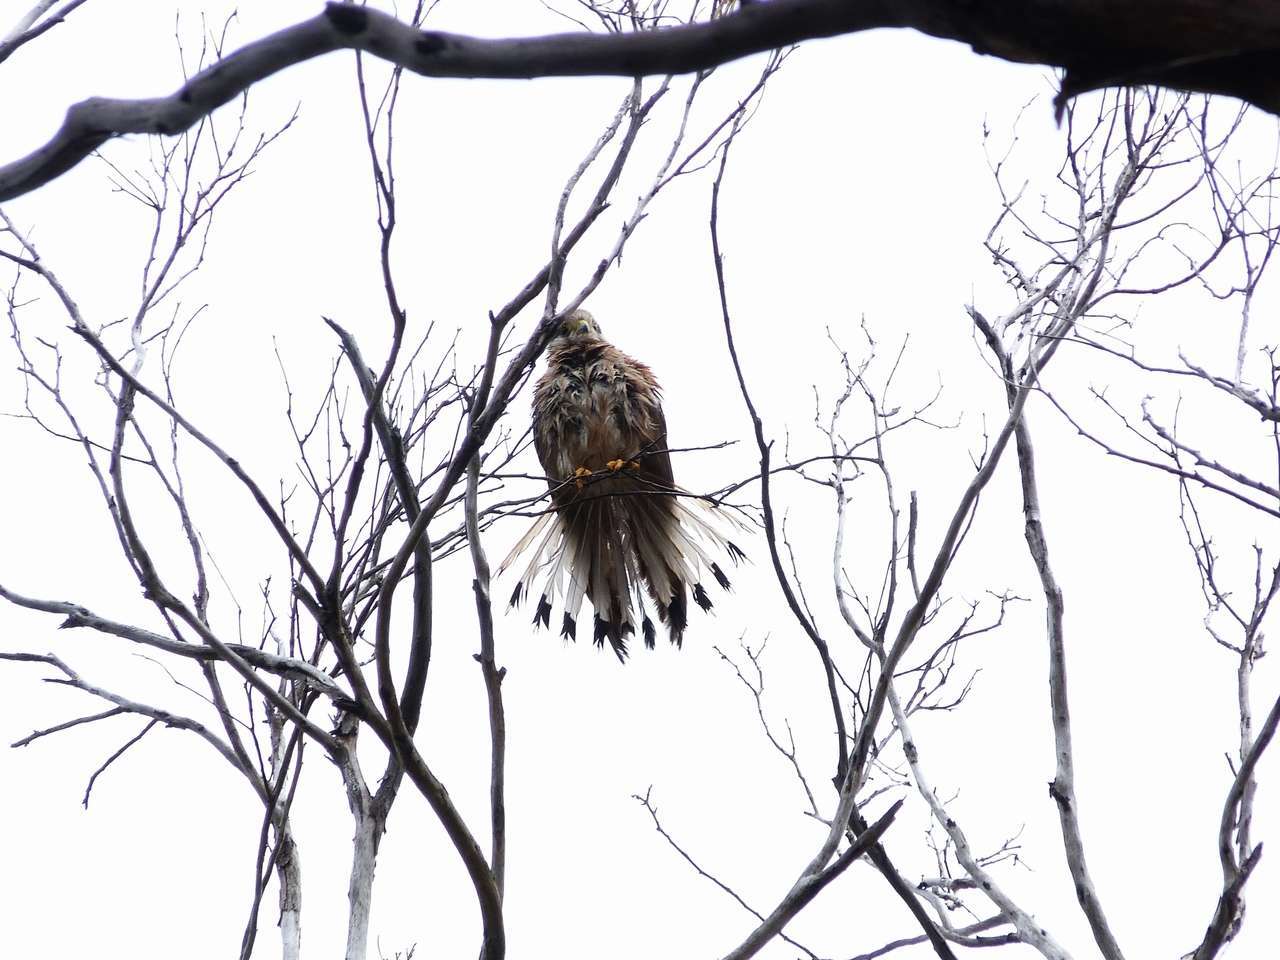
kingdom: Animalia
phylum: Chordata
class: Aves
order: Falconiformes
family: Falconidae
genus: Falco
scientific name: Falco cenchroides
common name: Nankeen kestrel
